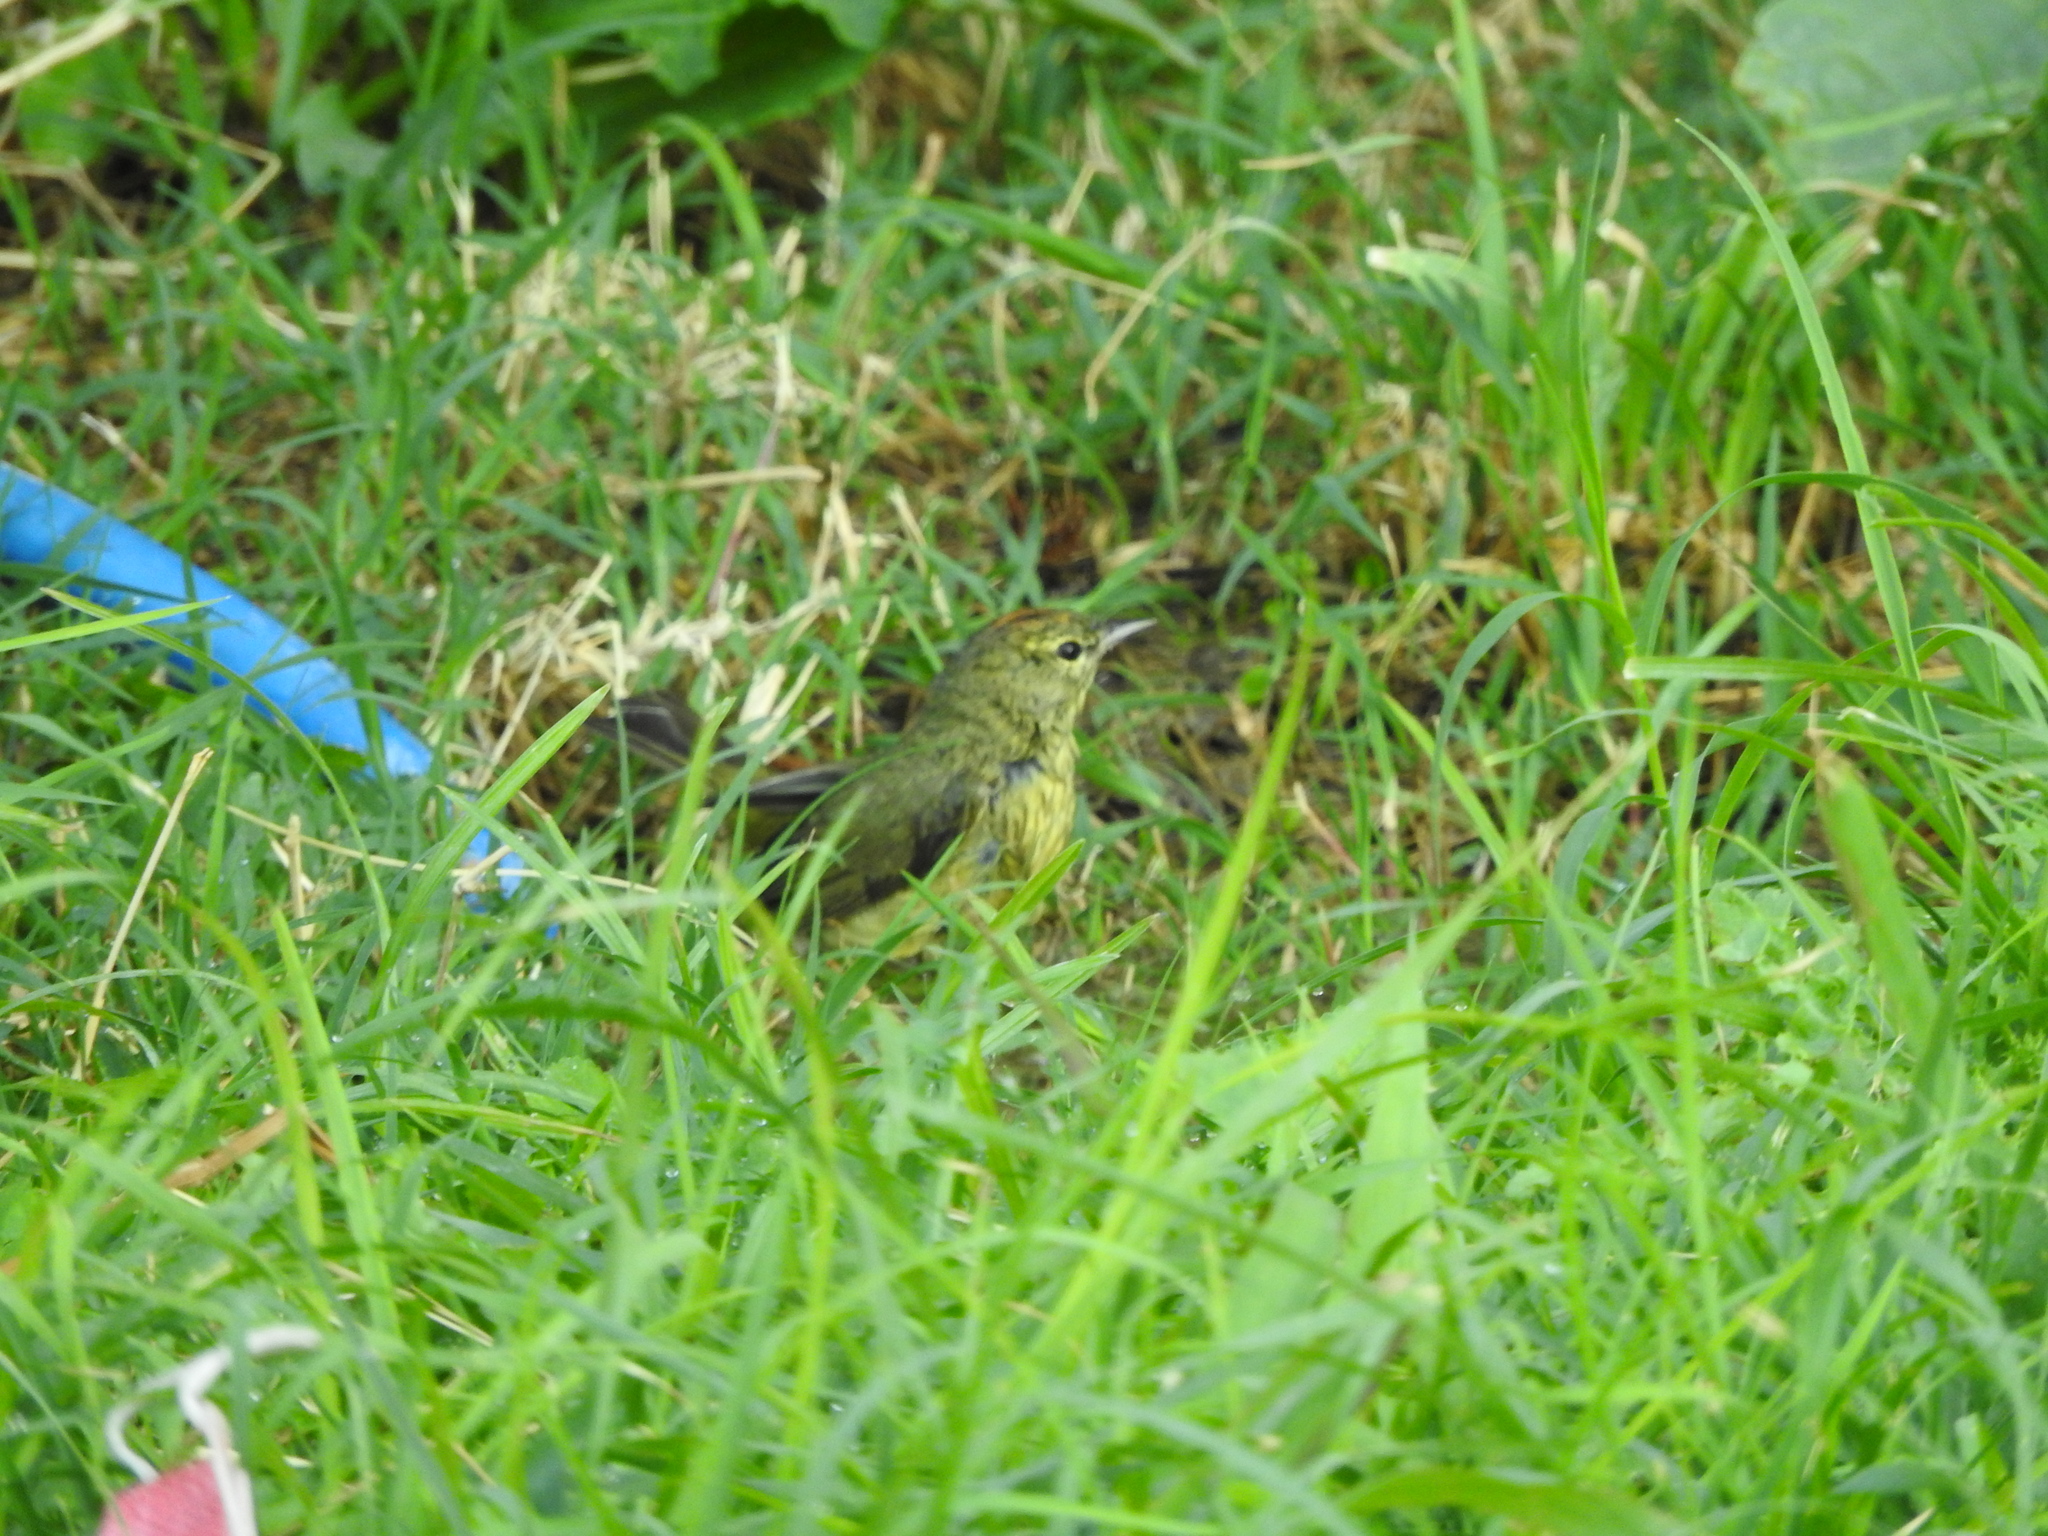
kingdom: Animalia
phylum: Chordata
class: Aves
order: Passeriformes
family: Parulidae
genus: Leiothlypis
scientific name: Leiothlypis celata
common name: Orange-crowned warbler
